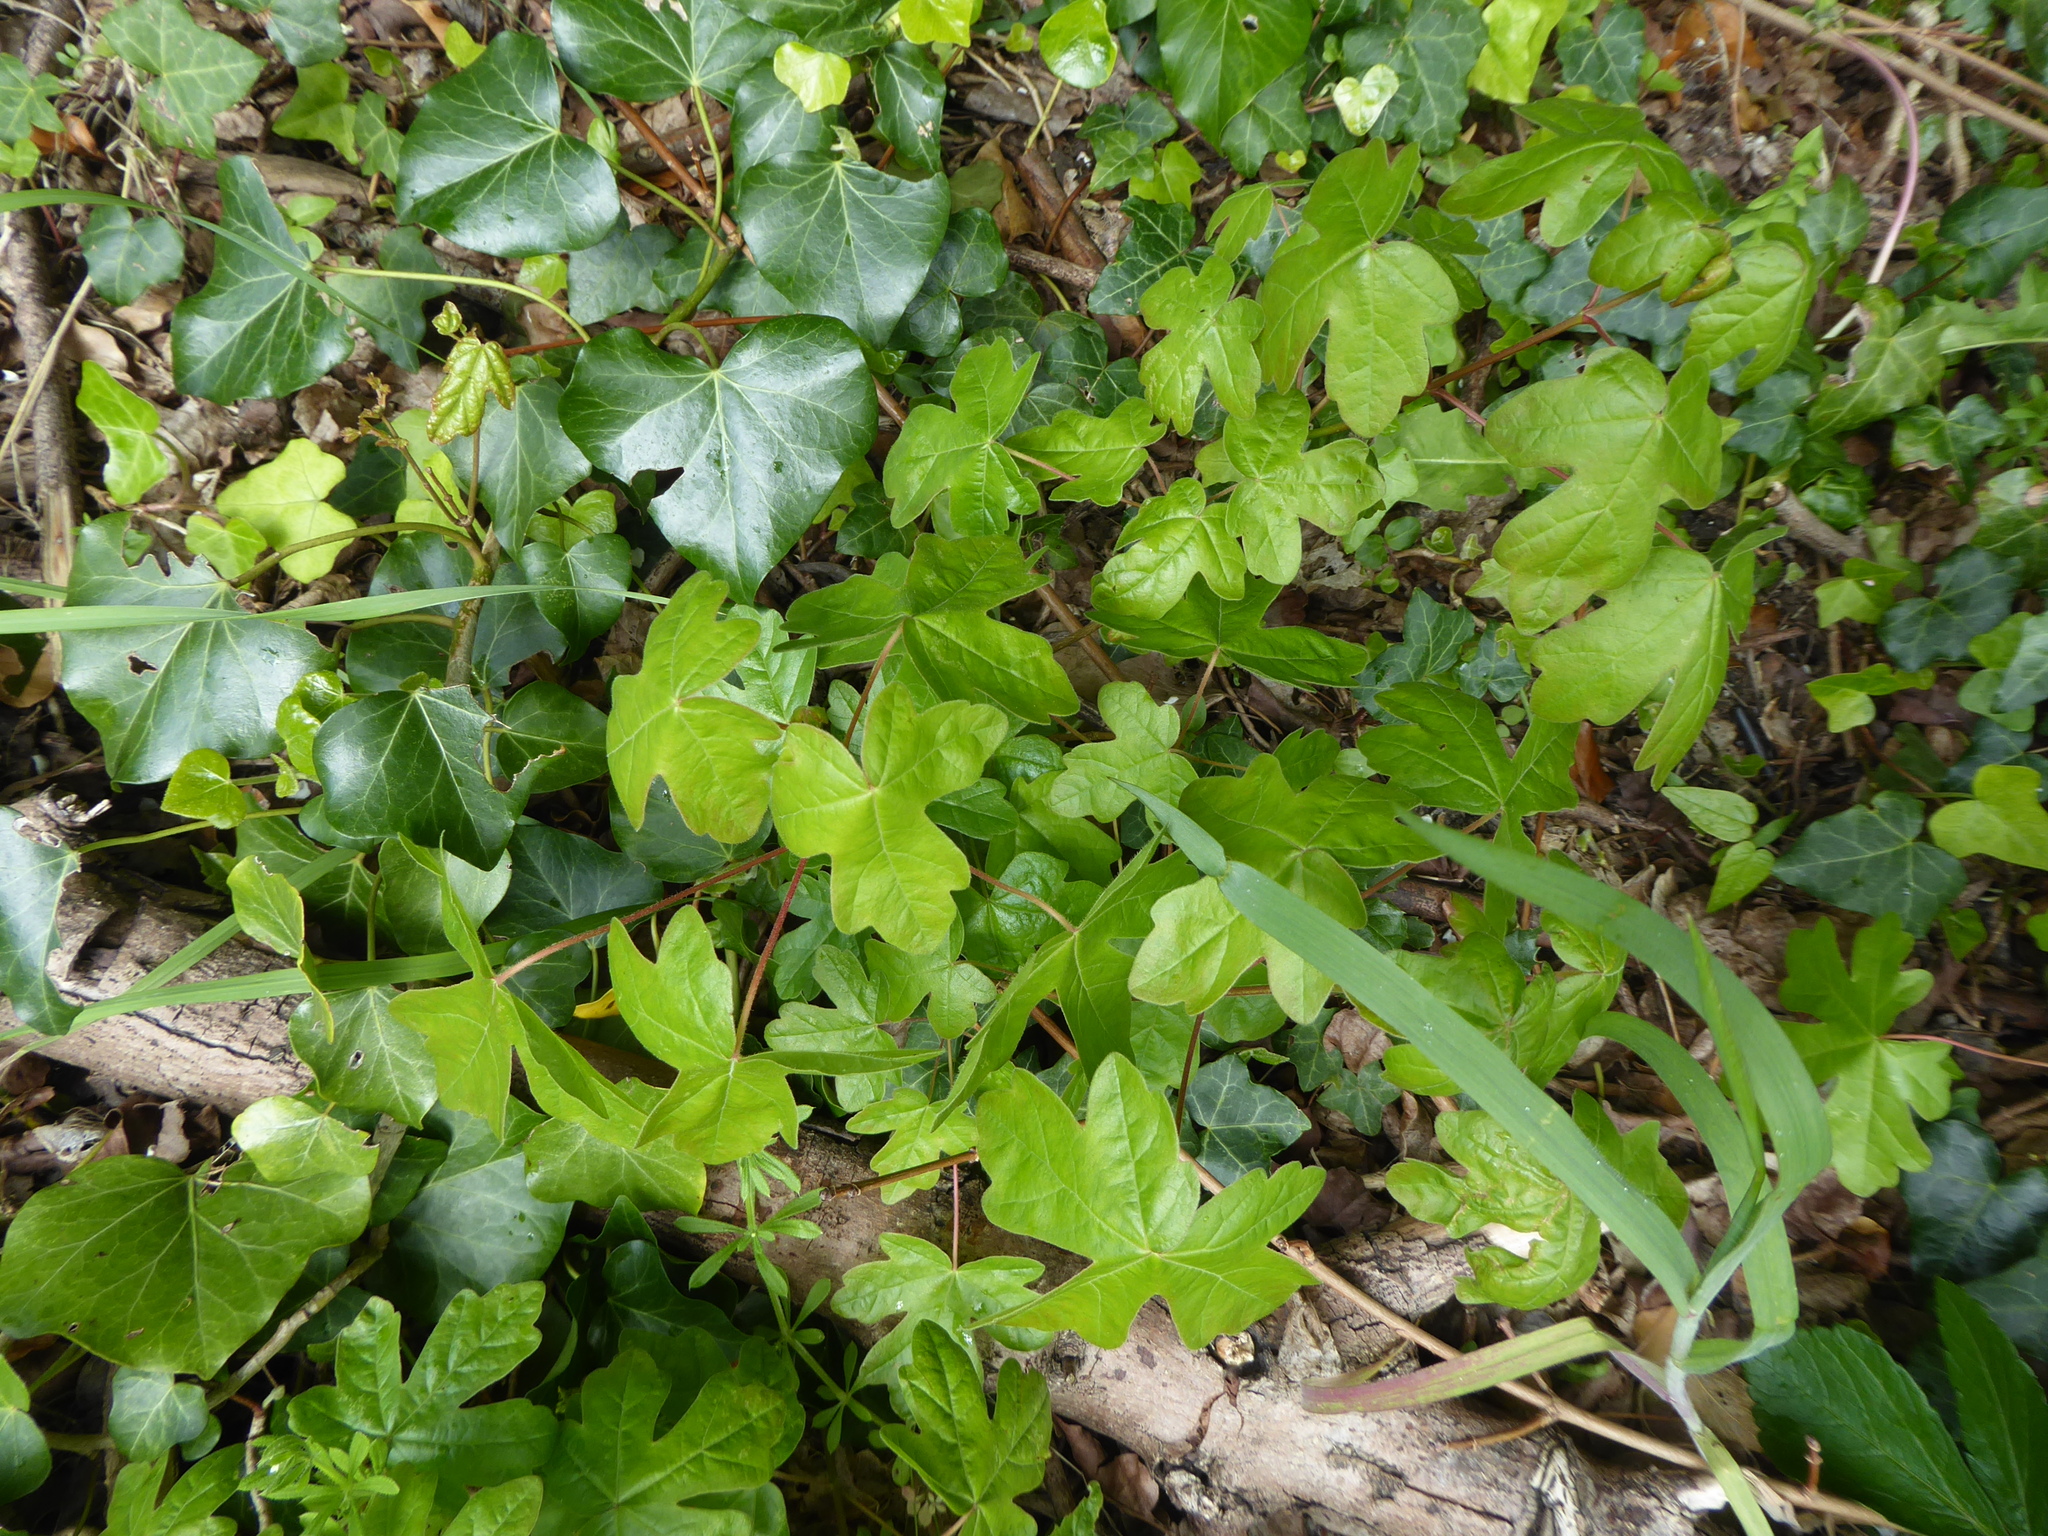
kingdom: Plantae
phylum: Tracheophyta
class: Magnoliopsida
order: Sapindales
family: Sapindaceae
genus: Acer
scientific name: Acer campestre
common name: Field maple
